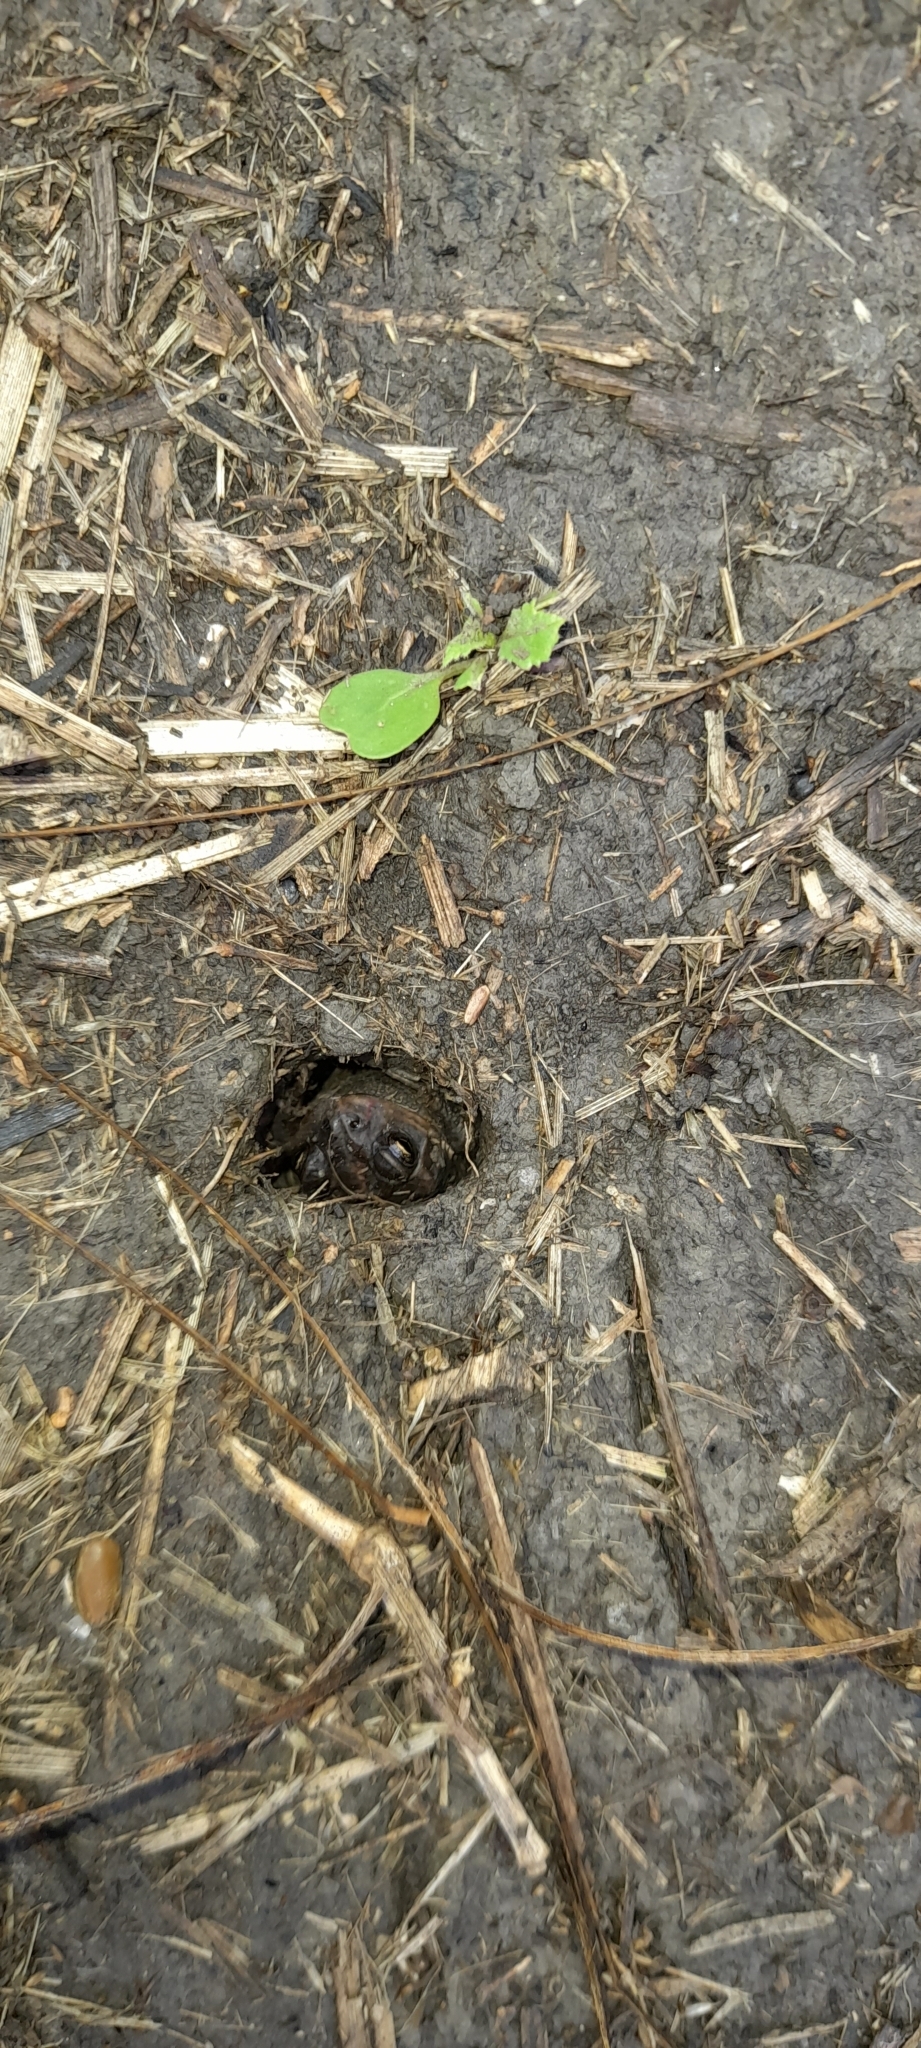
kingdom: Animalia
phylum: Chordata
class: Amphibia
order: Anura
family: Bufonidae
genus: Rhinella
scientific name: Rhinella dorbignyi
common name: D´orbigny’s toad
